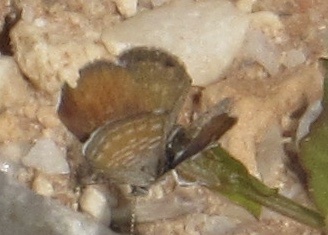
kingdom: Animalia
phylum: Arthropoda
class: Insecta
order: Lepidoptera
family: Lycaenidae
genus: Brephidium
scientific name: Brephidium exilis
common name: Pygmy blue
